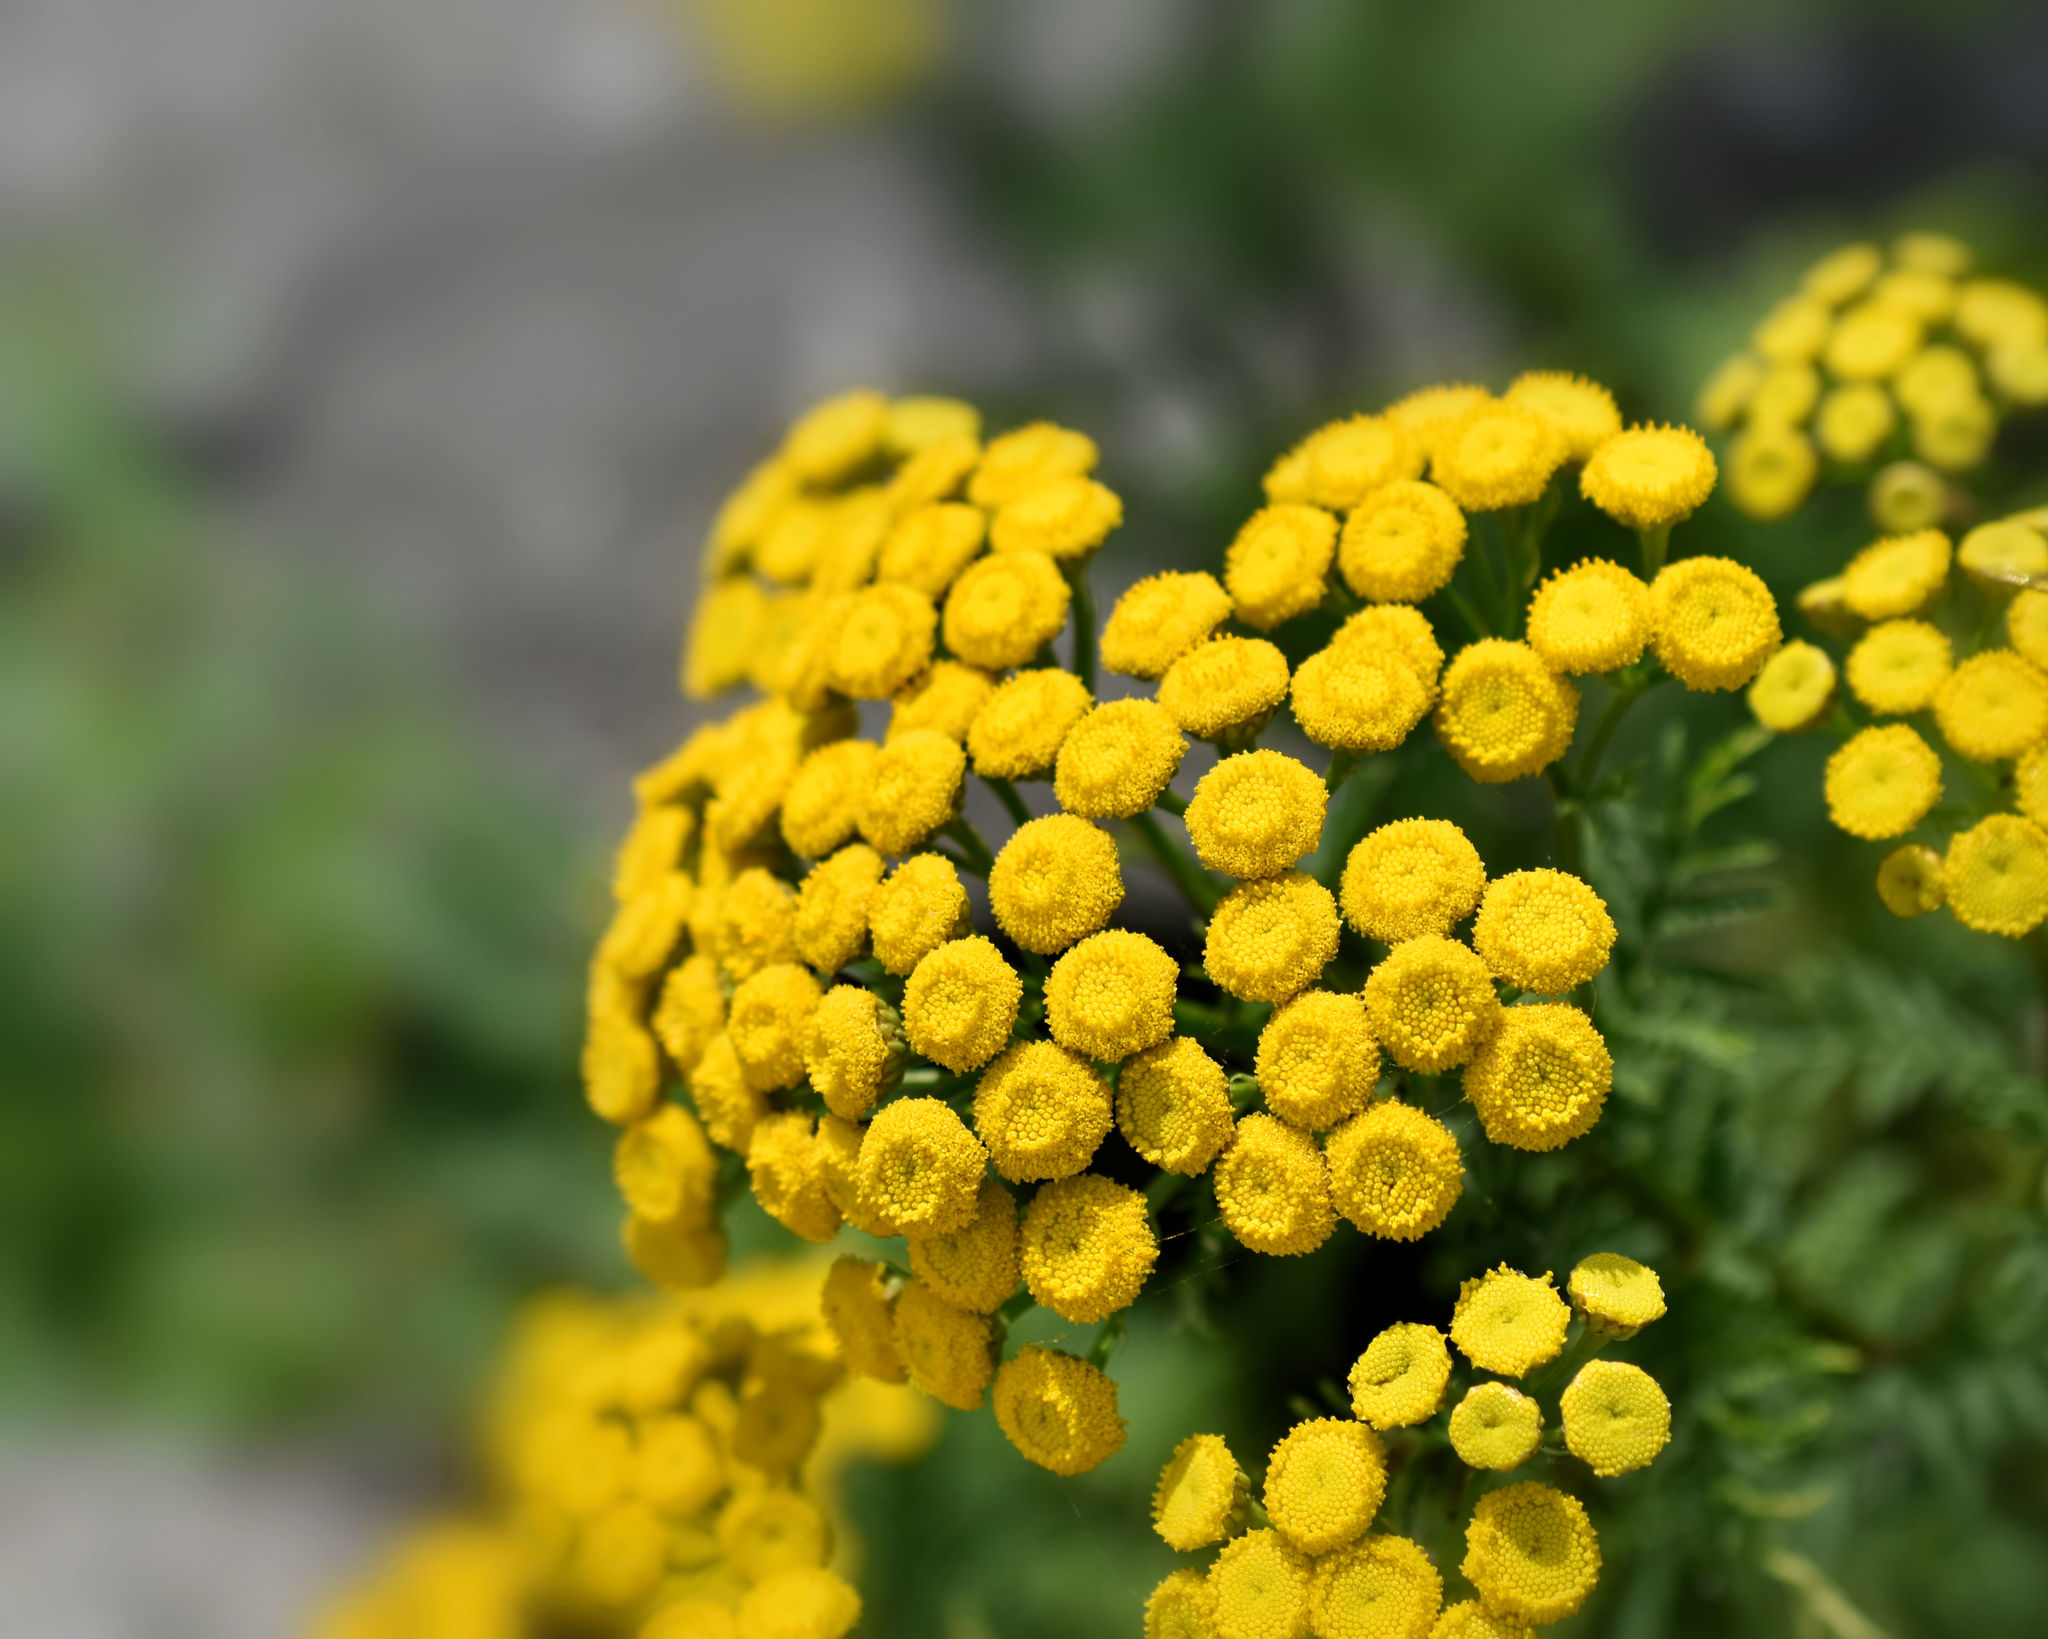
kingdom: Plantae
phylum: Tracheophyta
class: Magnoliopsida
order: Asterales
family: Asteraceae
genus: Tanacetum
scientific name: Tanacetum vulgare
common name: Common tansy
